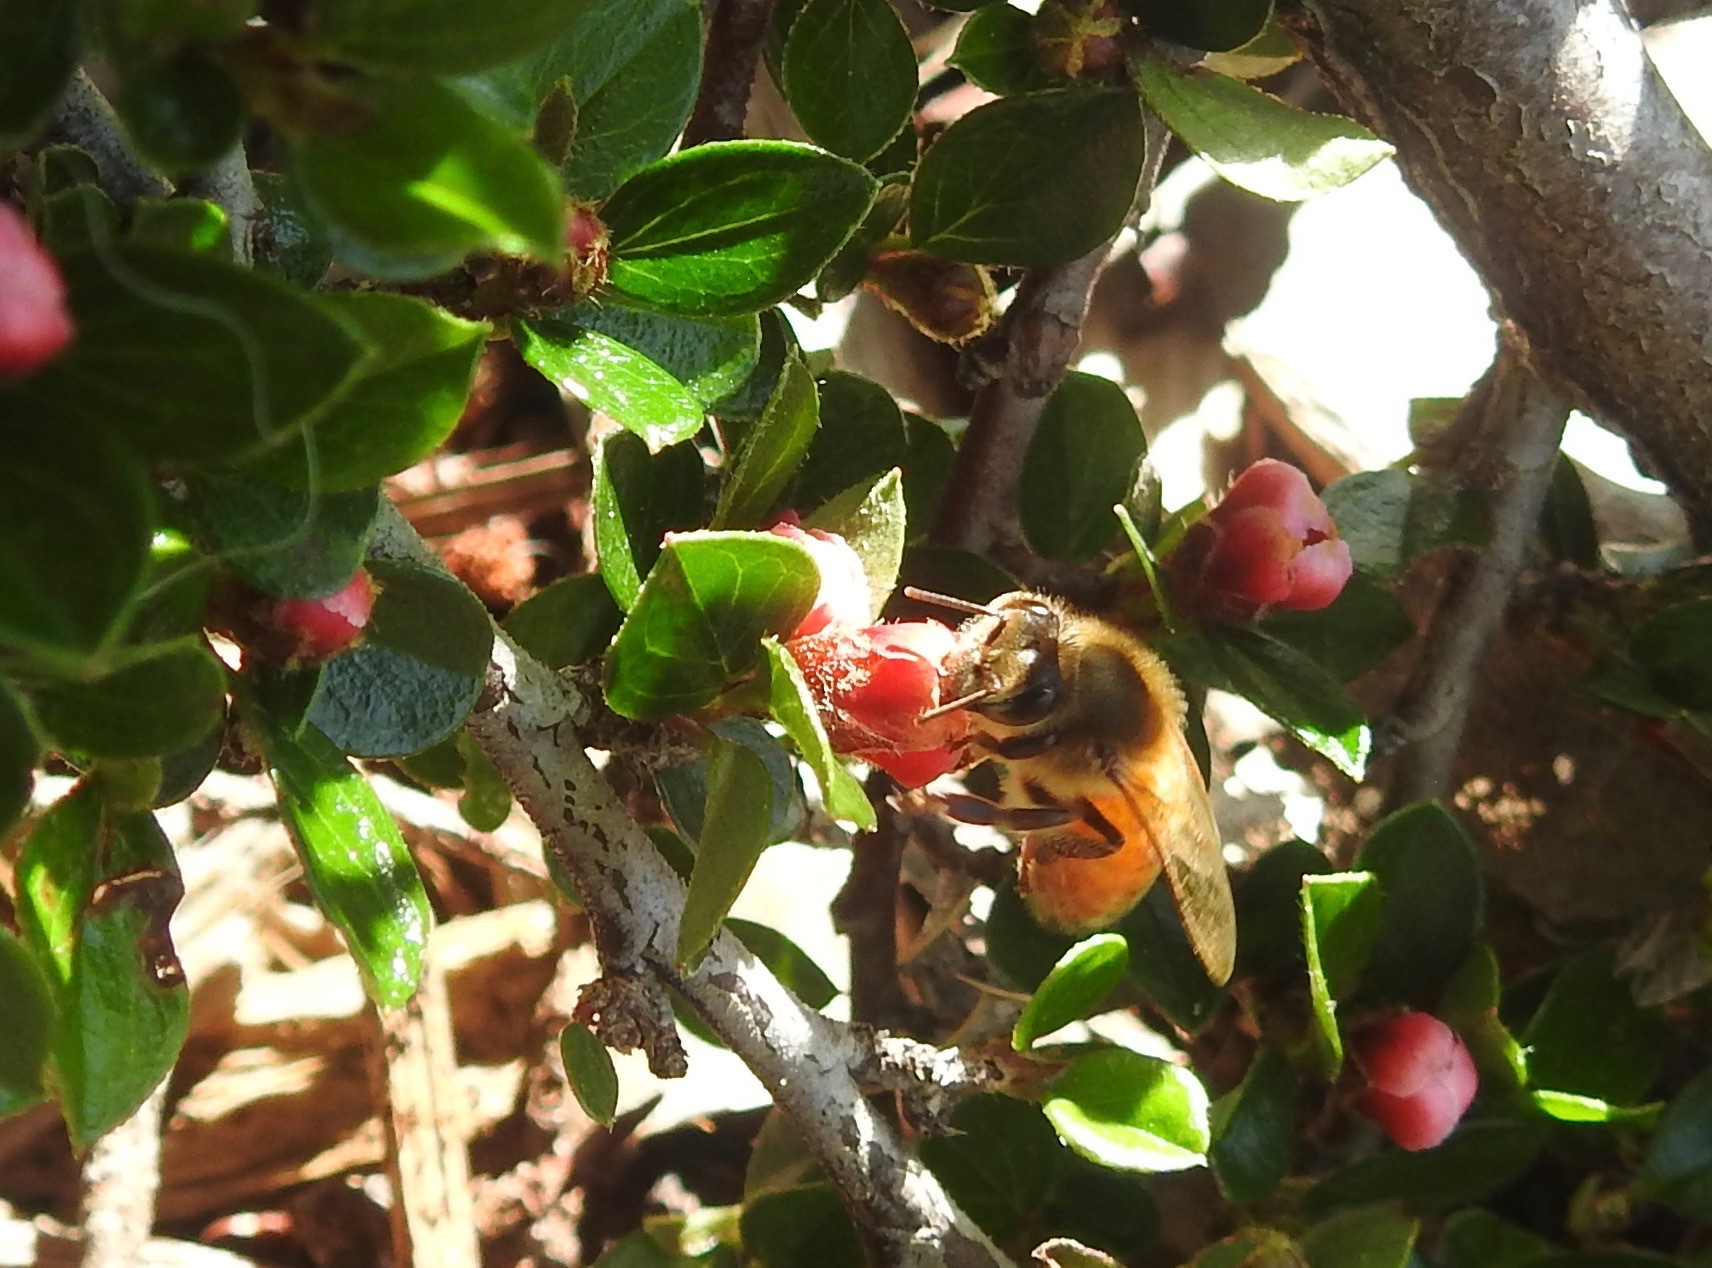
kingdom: Animalia
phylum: Arthropoda
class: Insecta
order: Hymenoptera
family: Apidae
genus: Apis
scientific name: Apis mellifera
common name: Honey bee
